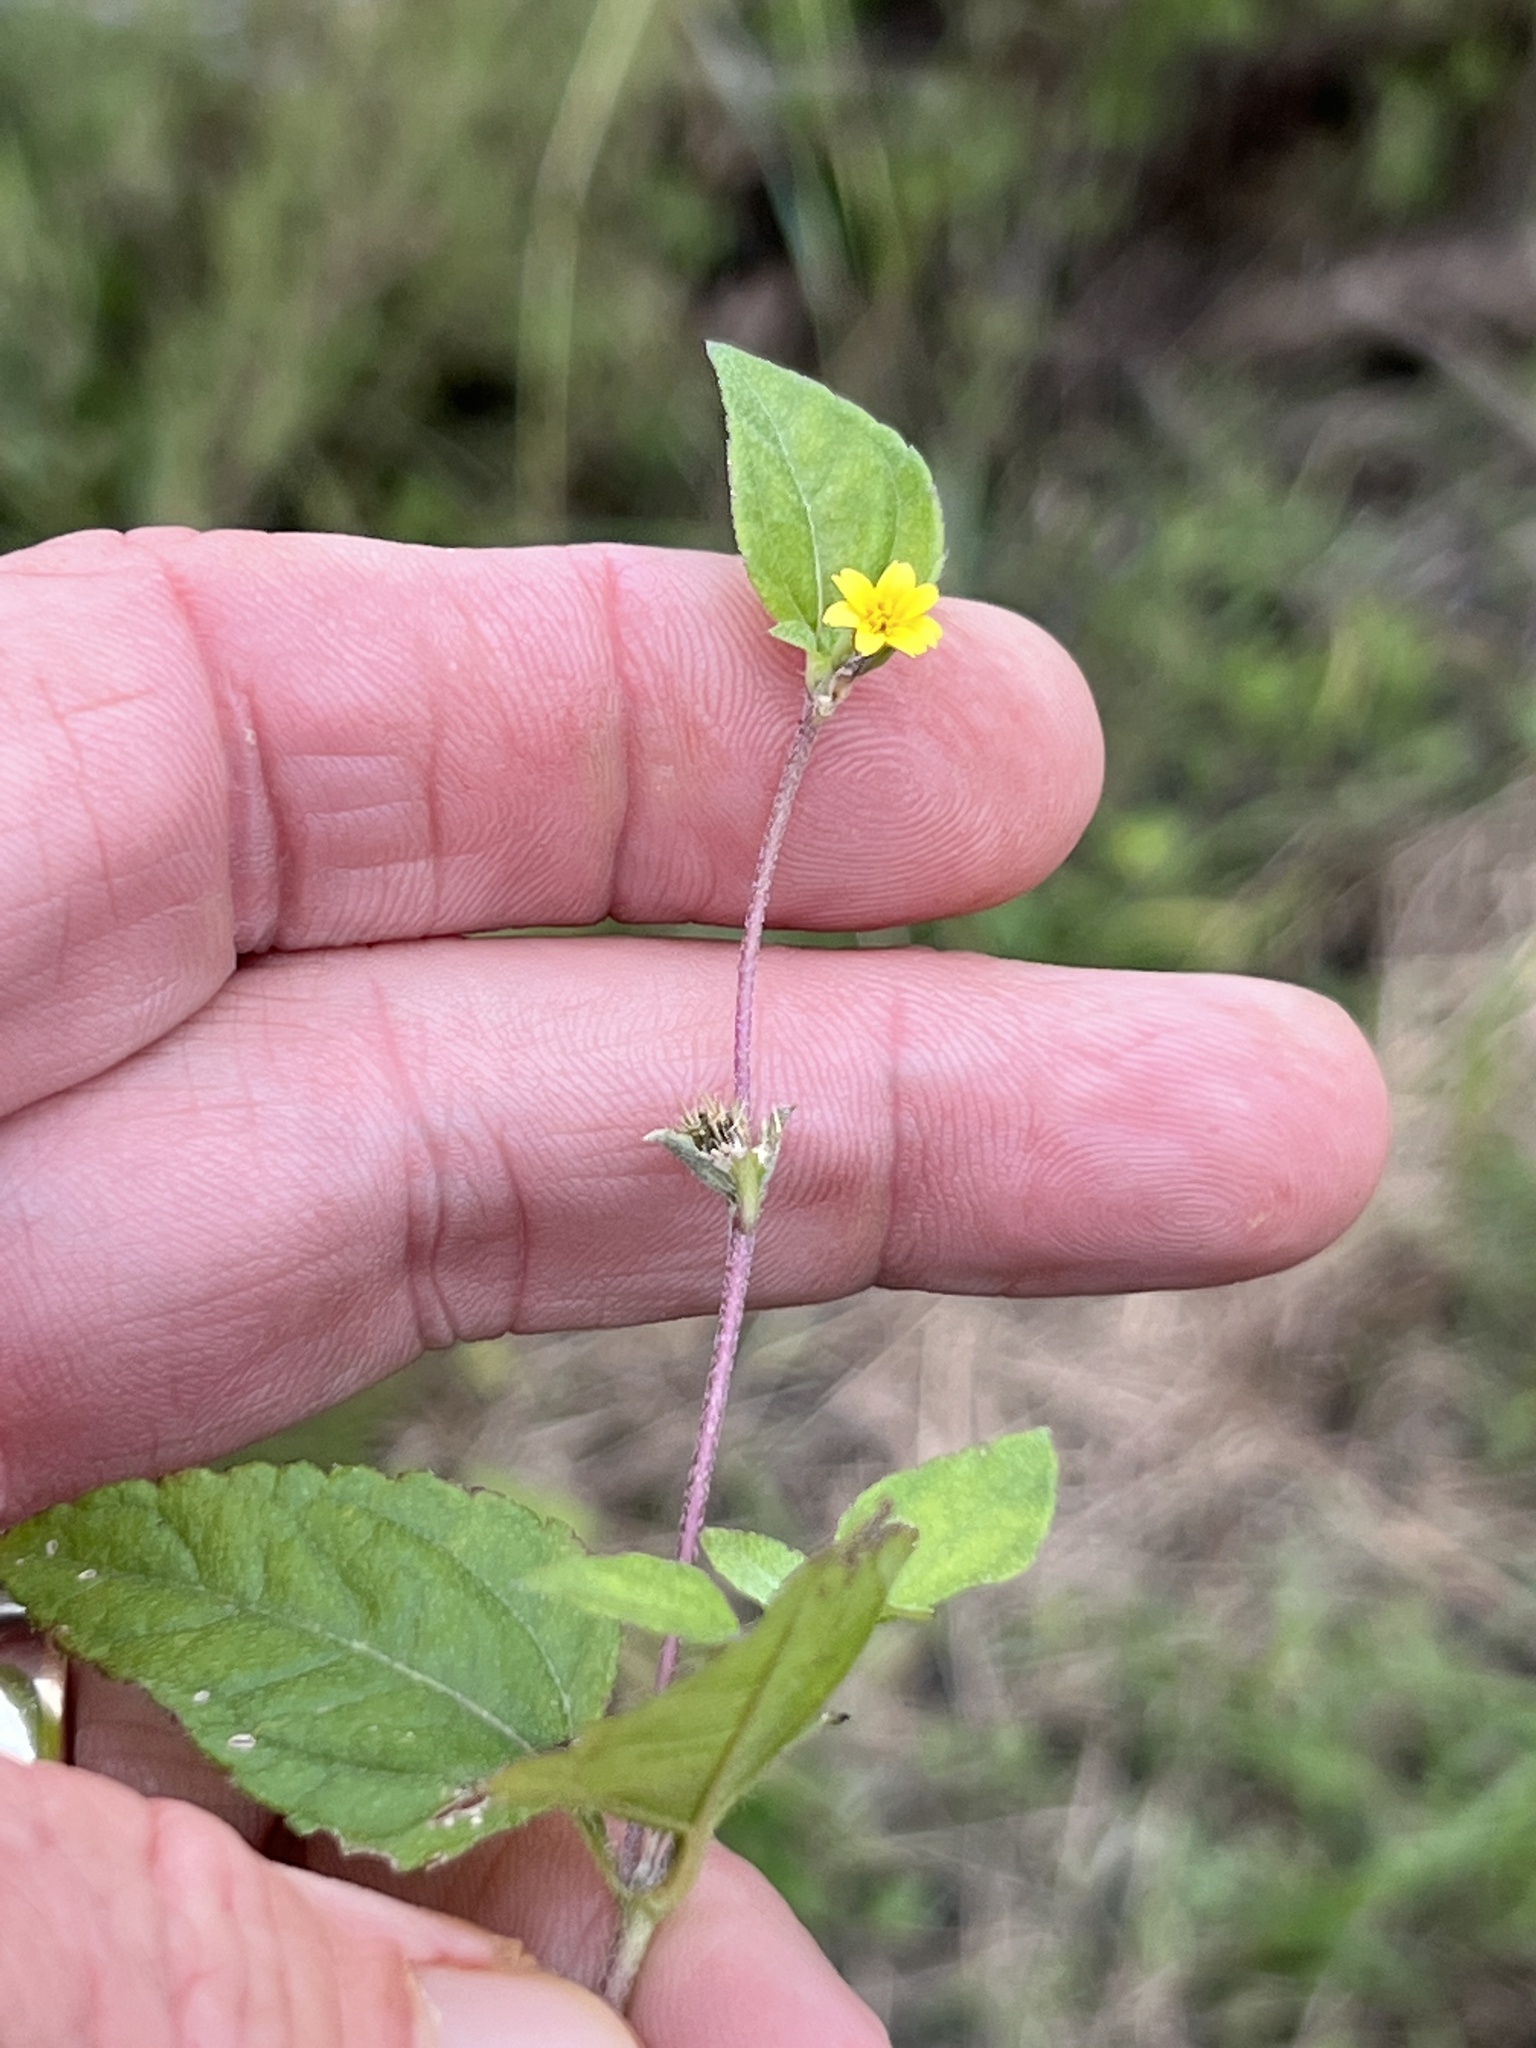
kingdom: Plantae
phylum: Tracheophyta
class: Magnoliopsida
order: Asterales
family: Asteraceae
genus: Calyptocarpus
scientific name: Calyptocarpus vialis
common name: Straggler daisy
